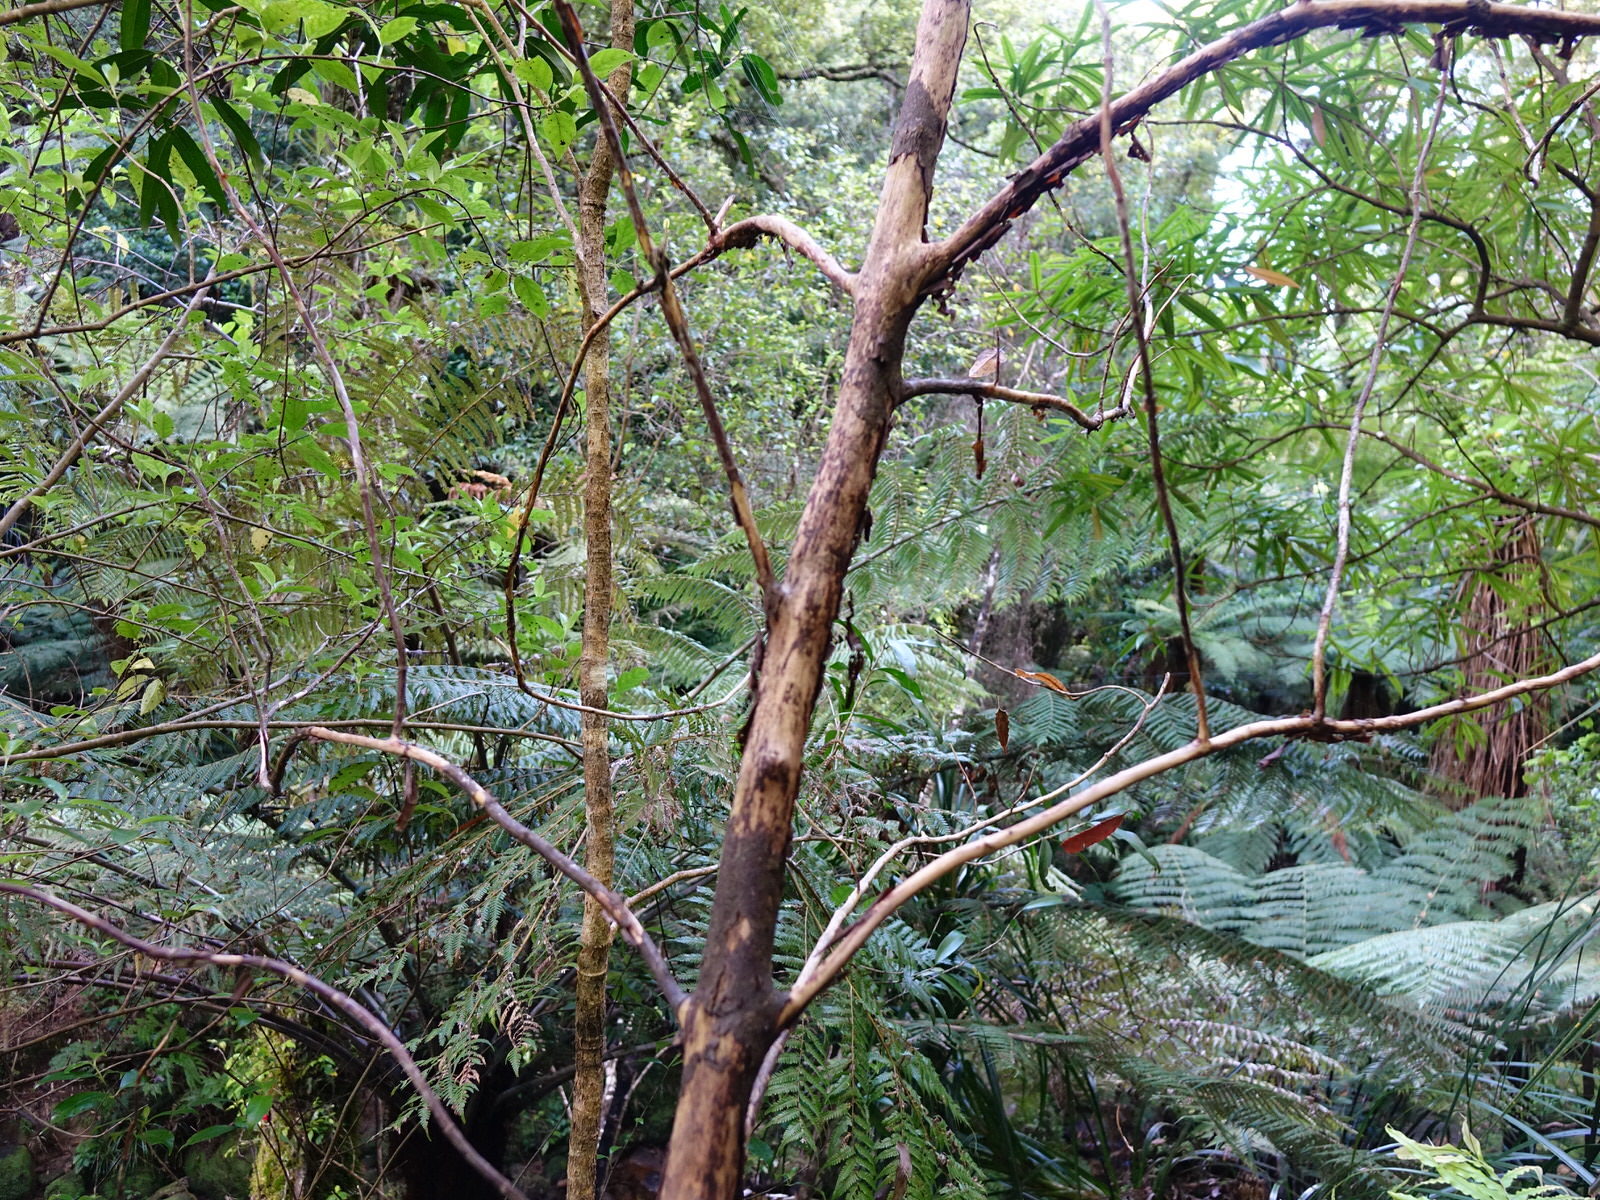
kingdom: Plantae
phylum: Tracheophyta
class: Magnoliopsida
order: Gentianales
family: Rubiaceae
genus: Coprosma
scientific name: Coprosma autumnalis
